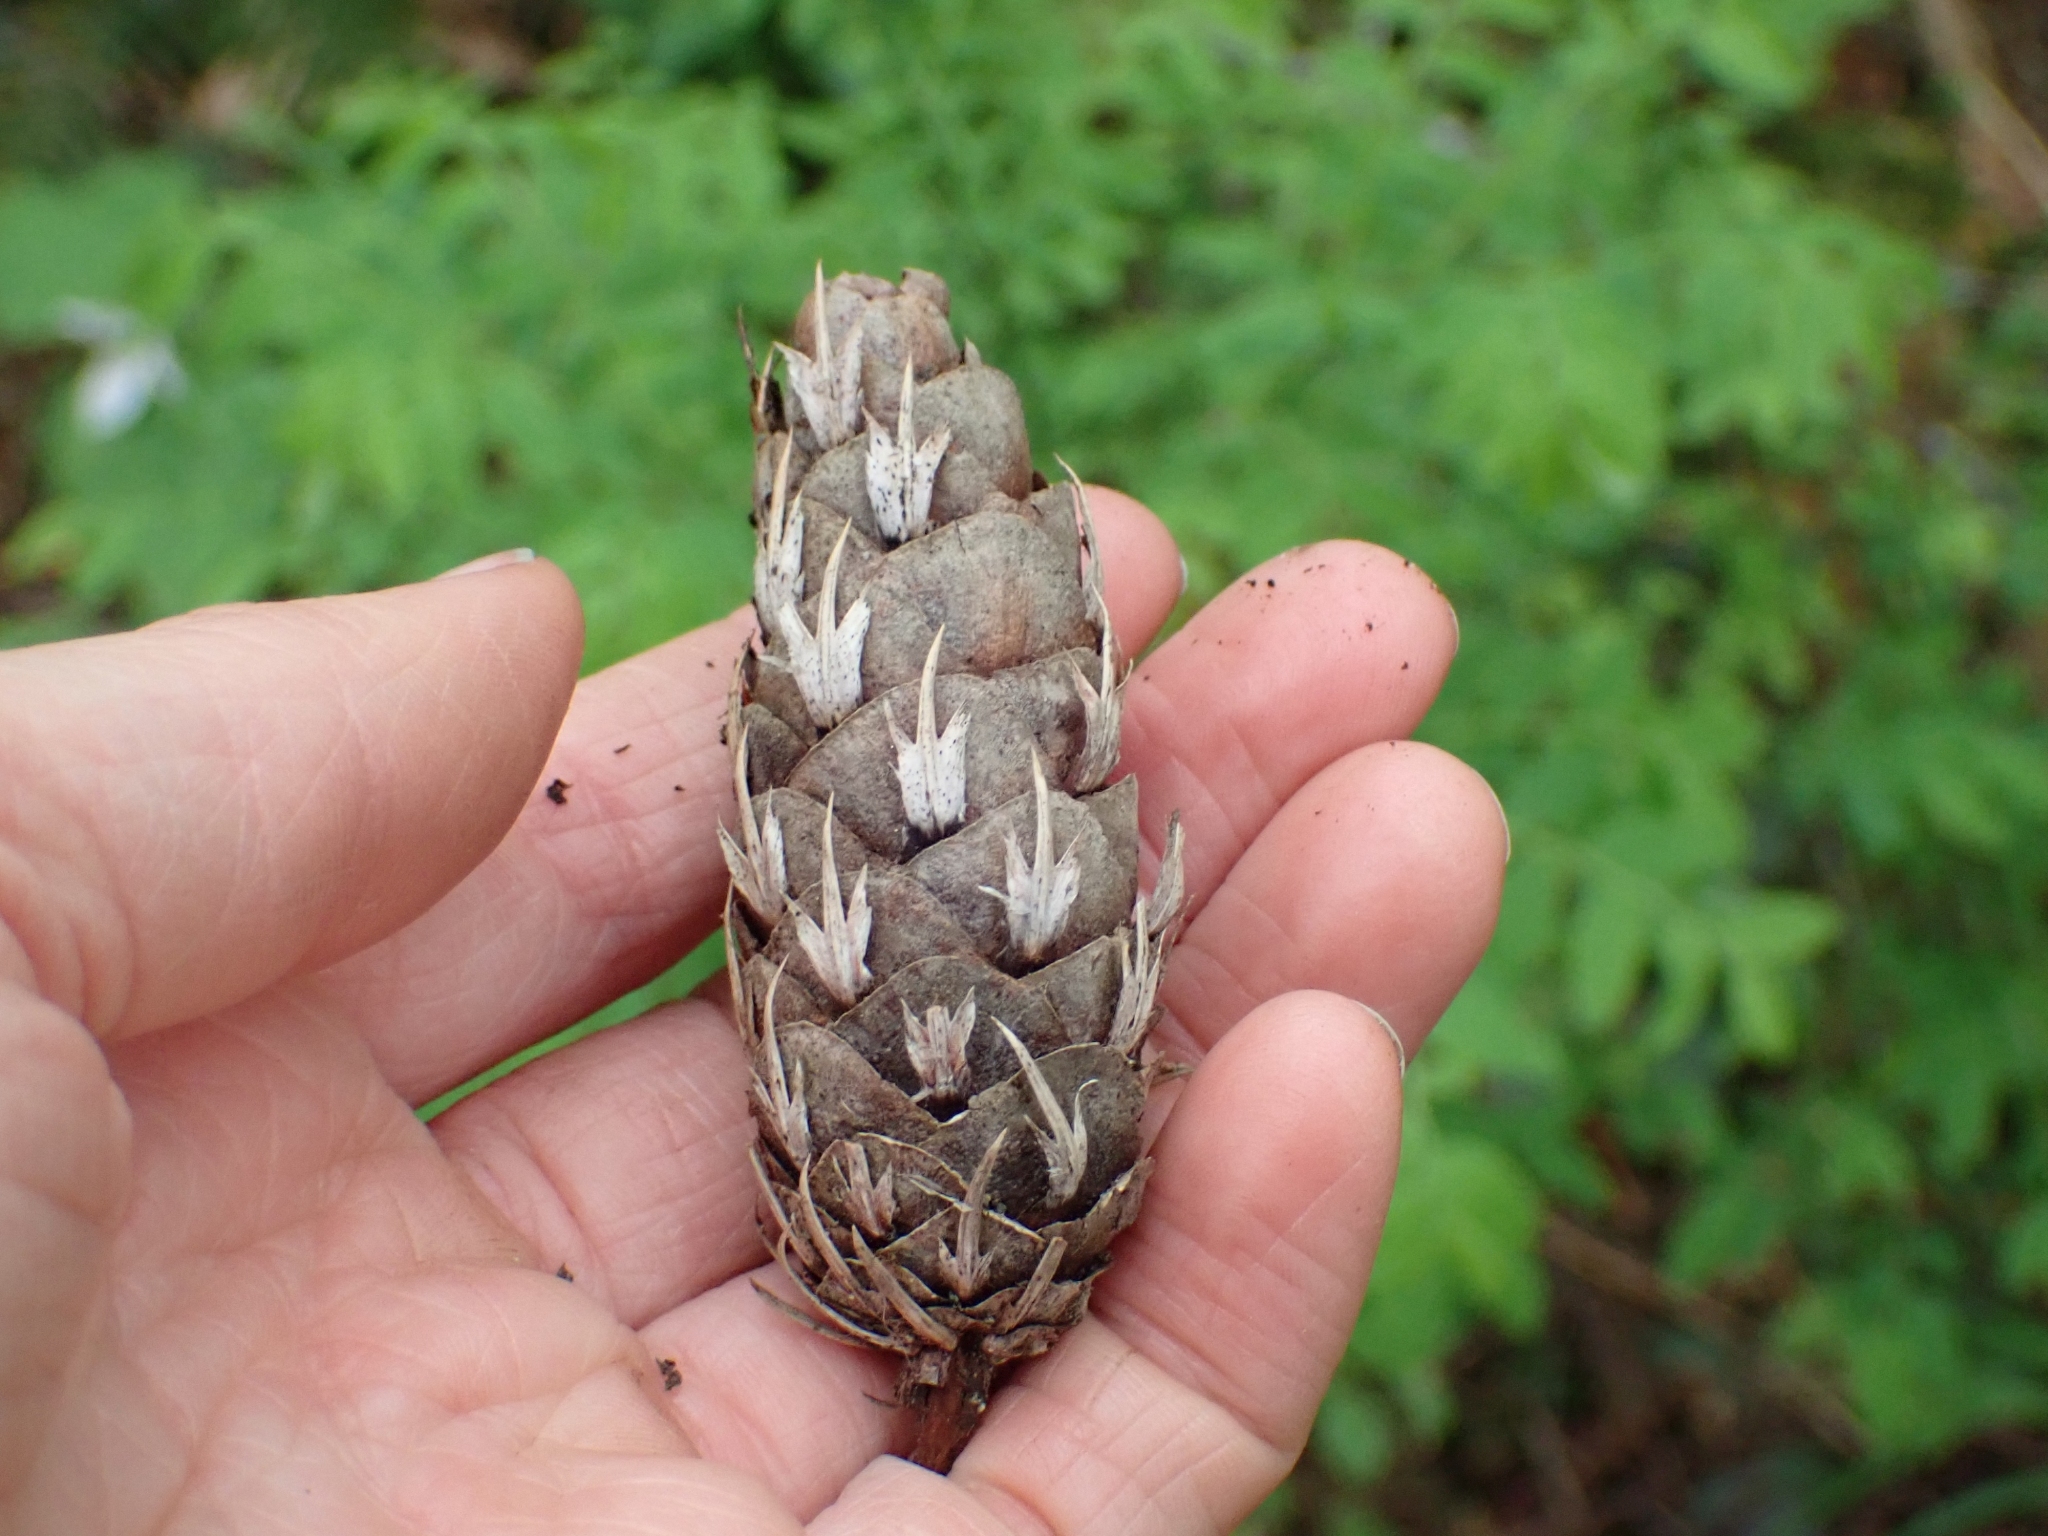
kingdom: Plantae
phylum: Tracheophyta
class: Pinopsida
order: Pinales
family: Pinaceae
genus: Pseudotsuga
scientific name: Pseudotsuga menziesii
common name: Douglas fir
